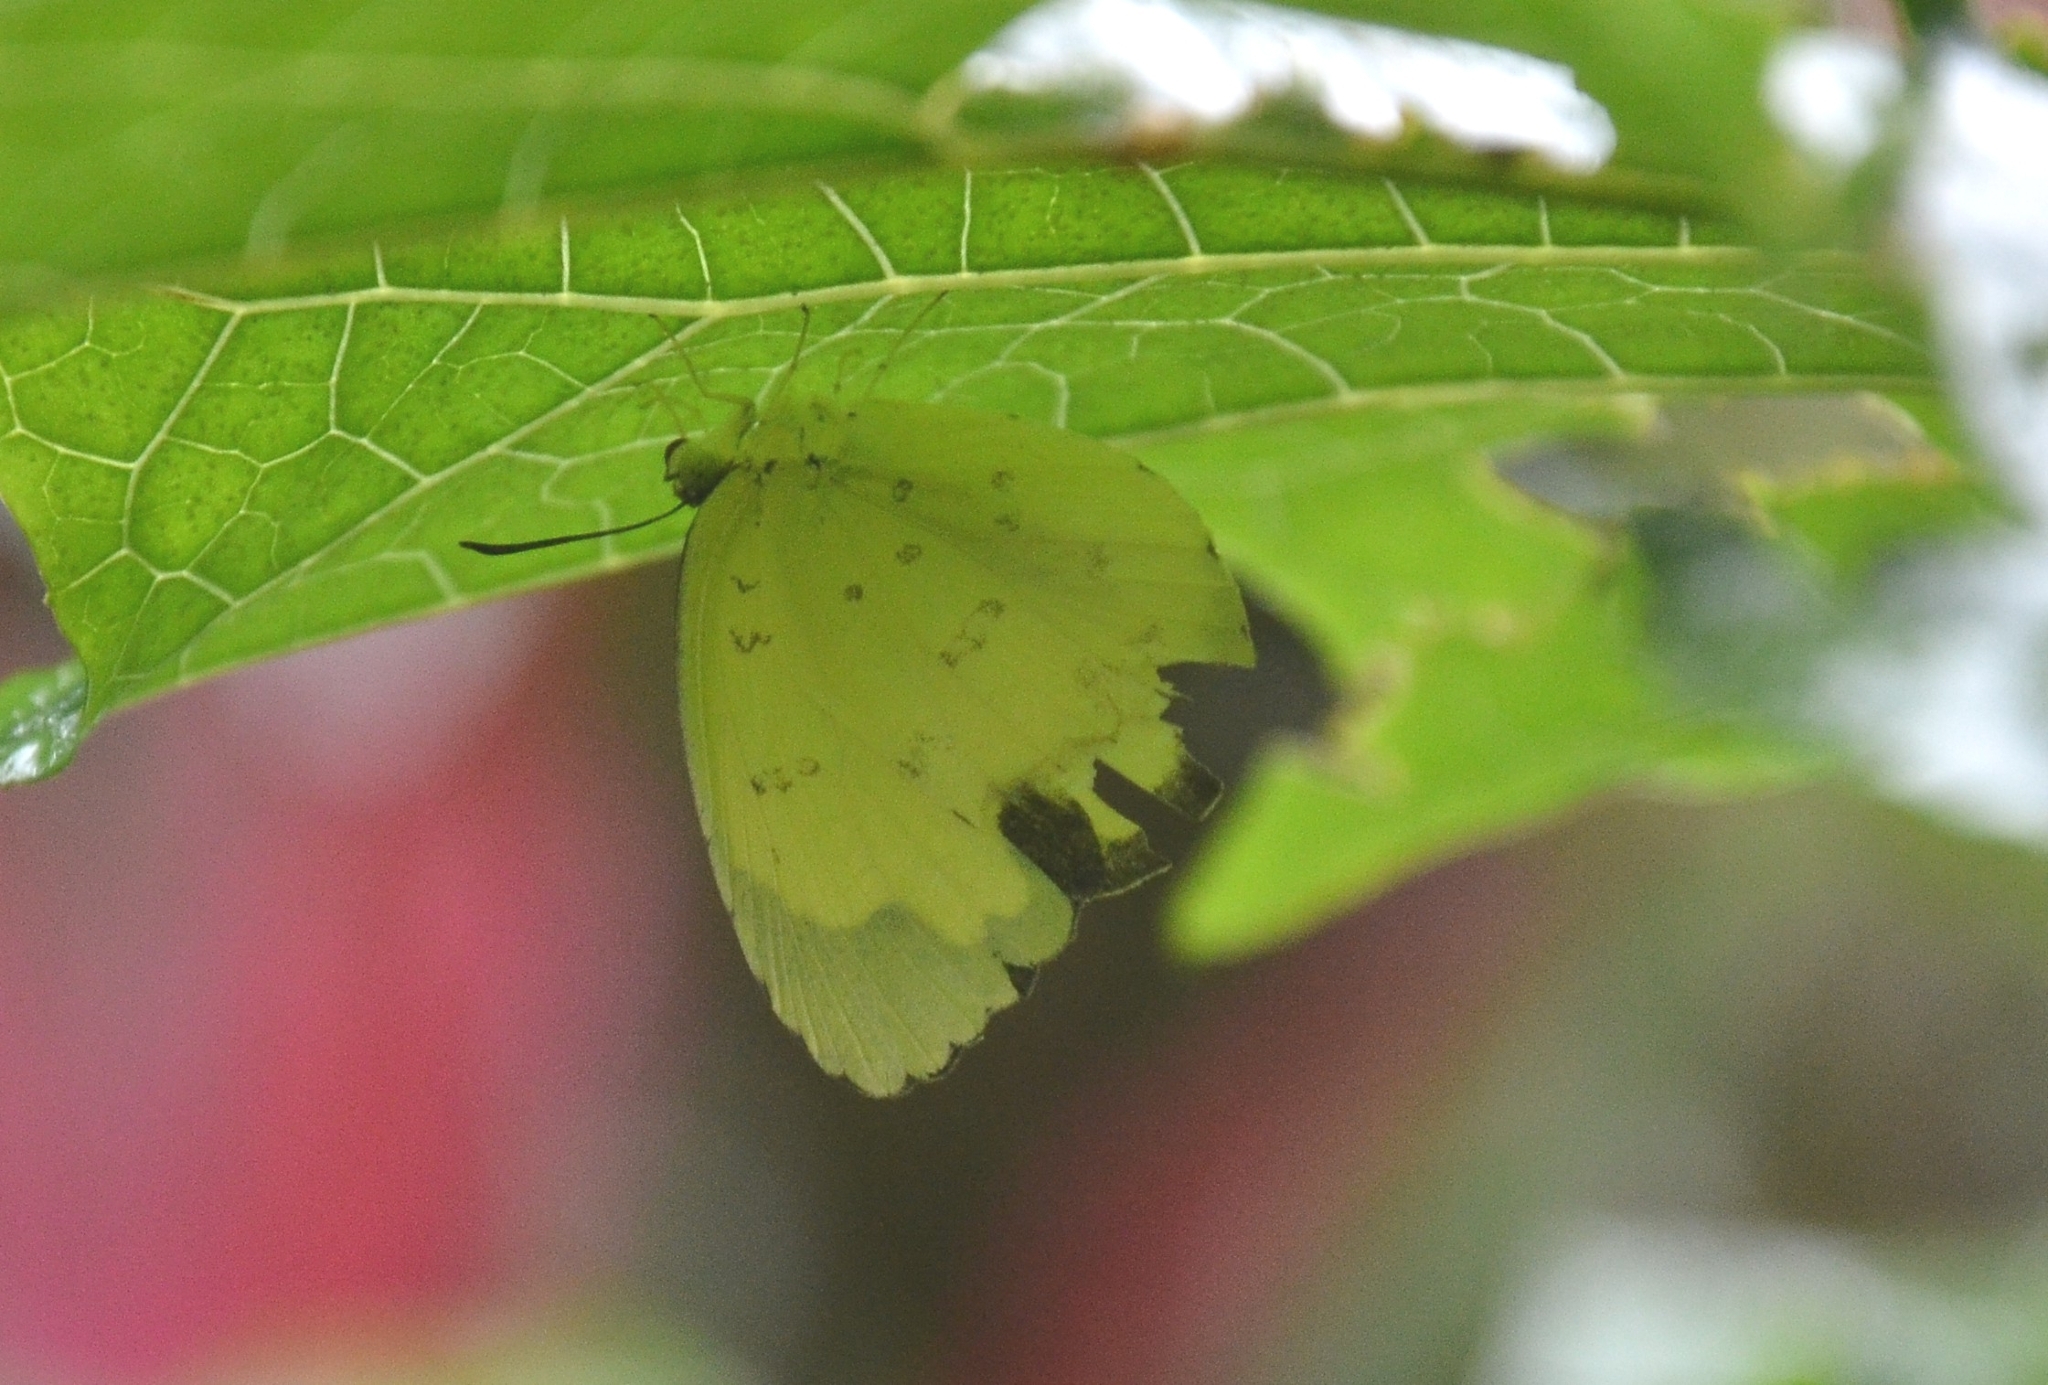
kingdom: Animalia
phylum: Arthropoda
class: Insecta
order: Lepidoptera
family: Pieridae
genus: Eurema
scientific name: Eurema blanda
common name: Three-spot grass yellow
